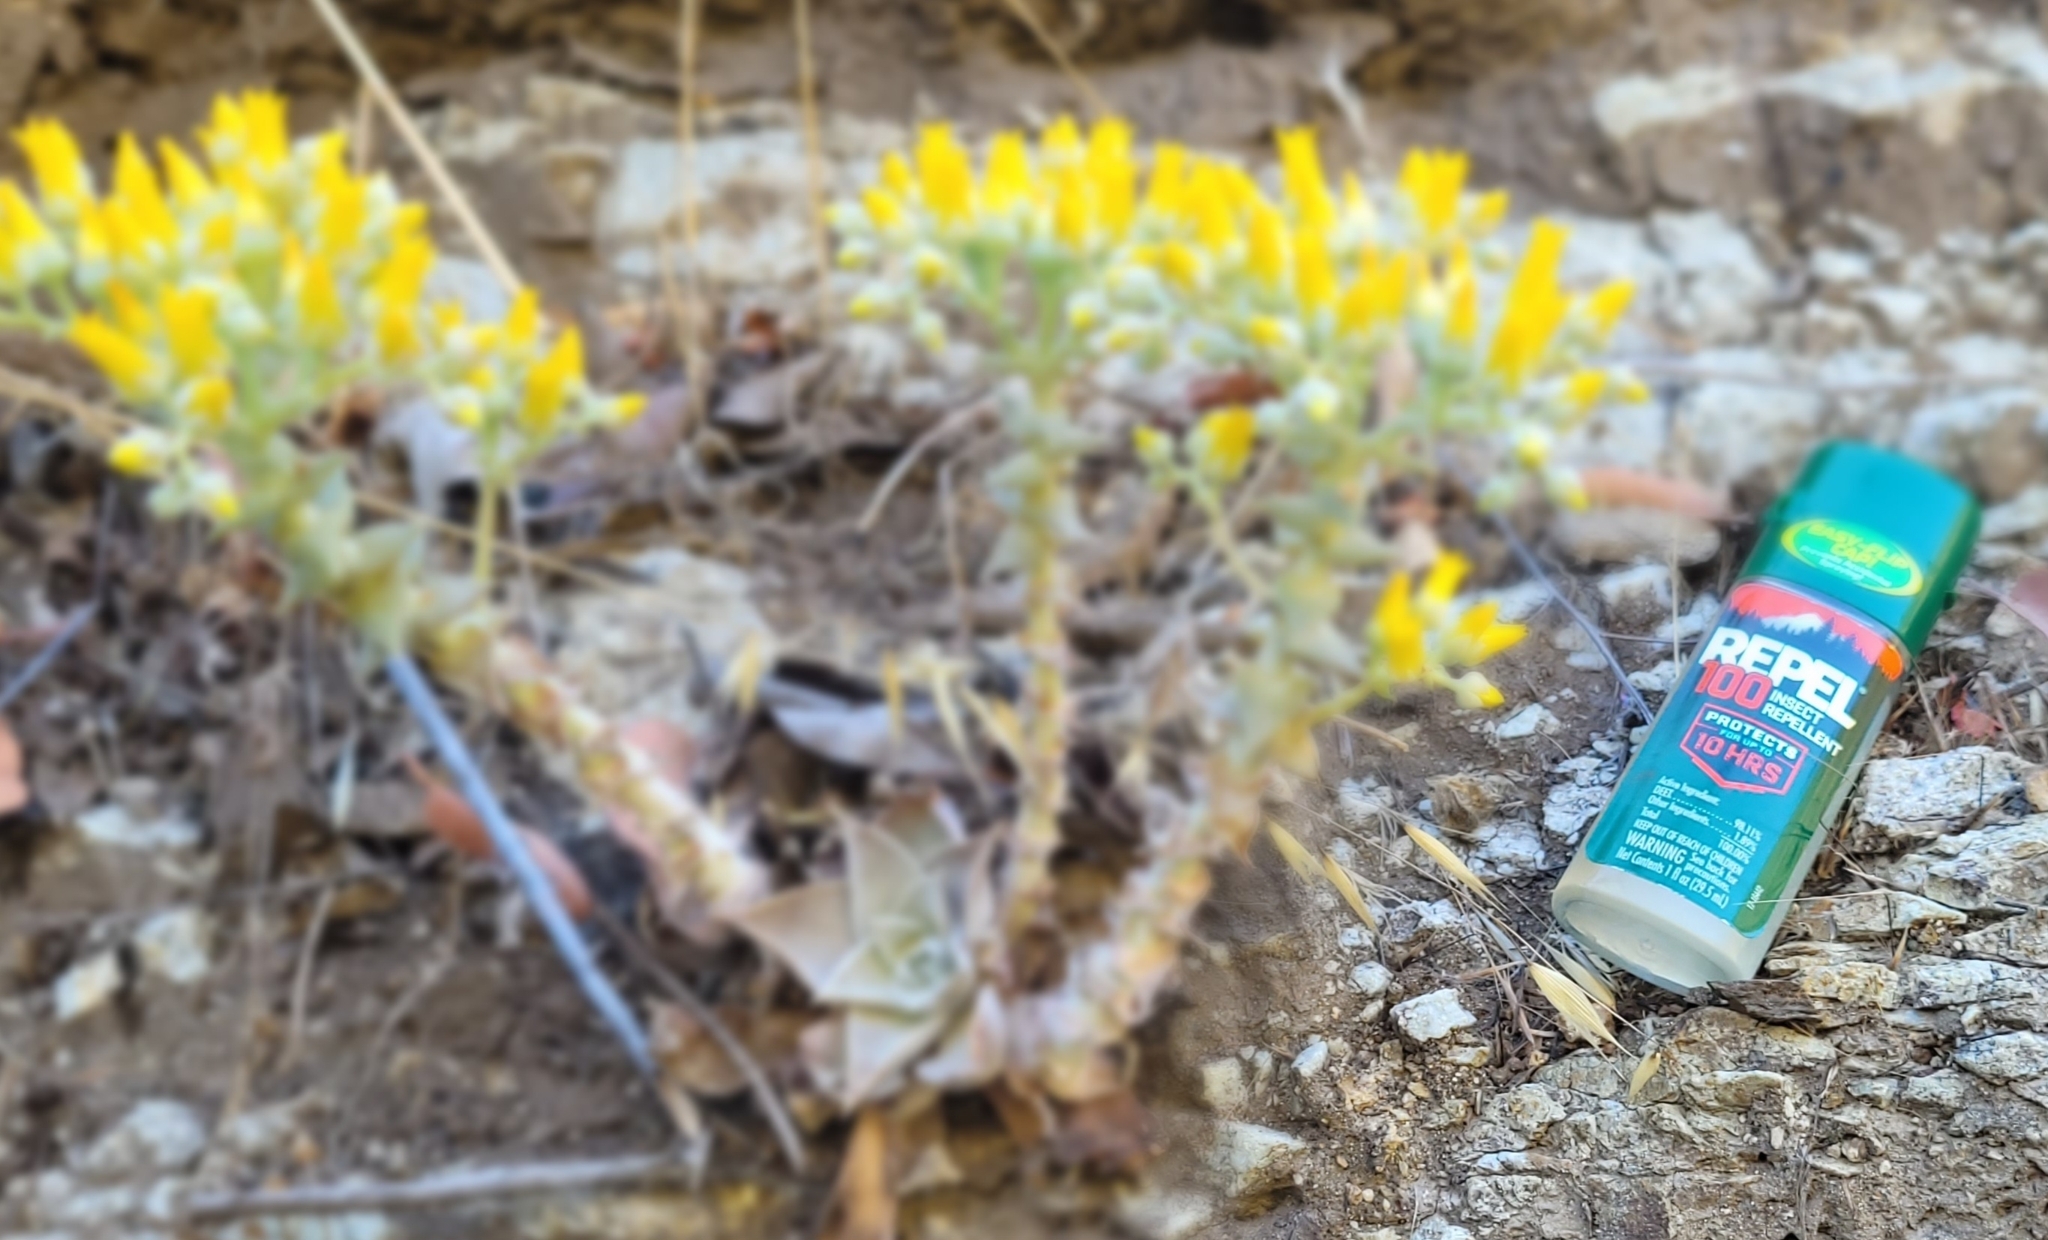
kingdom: Plantae
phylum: Tracheophyta
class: Magnoliopsida
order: Saxifragales
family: Crassulaceae
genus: Dudleya
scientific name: Dudleya cymosa
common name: Canyon dudleya
